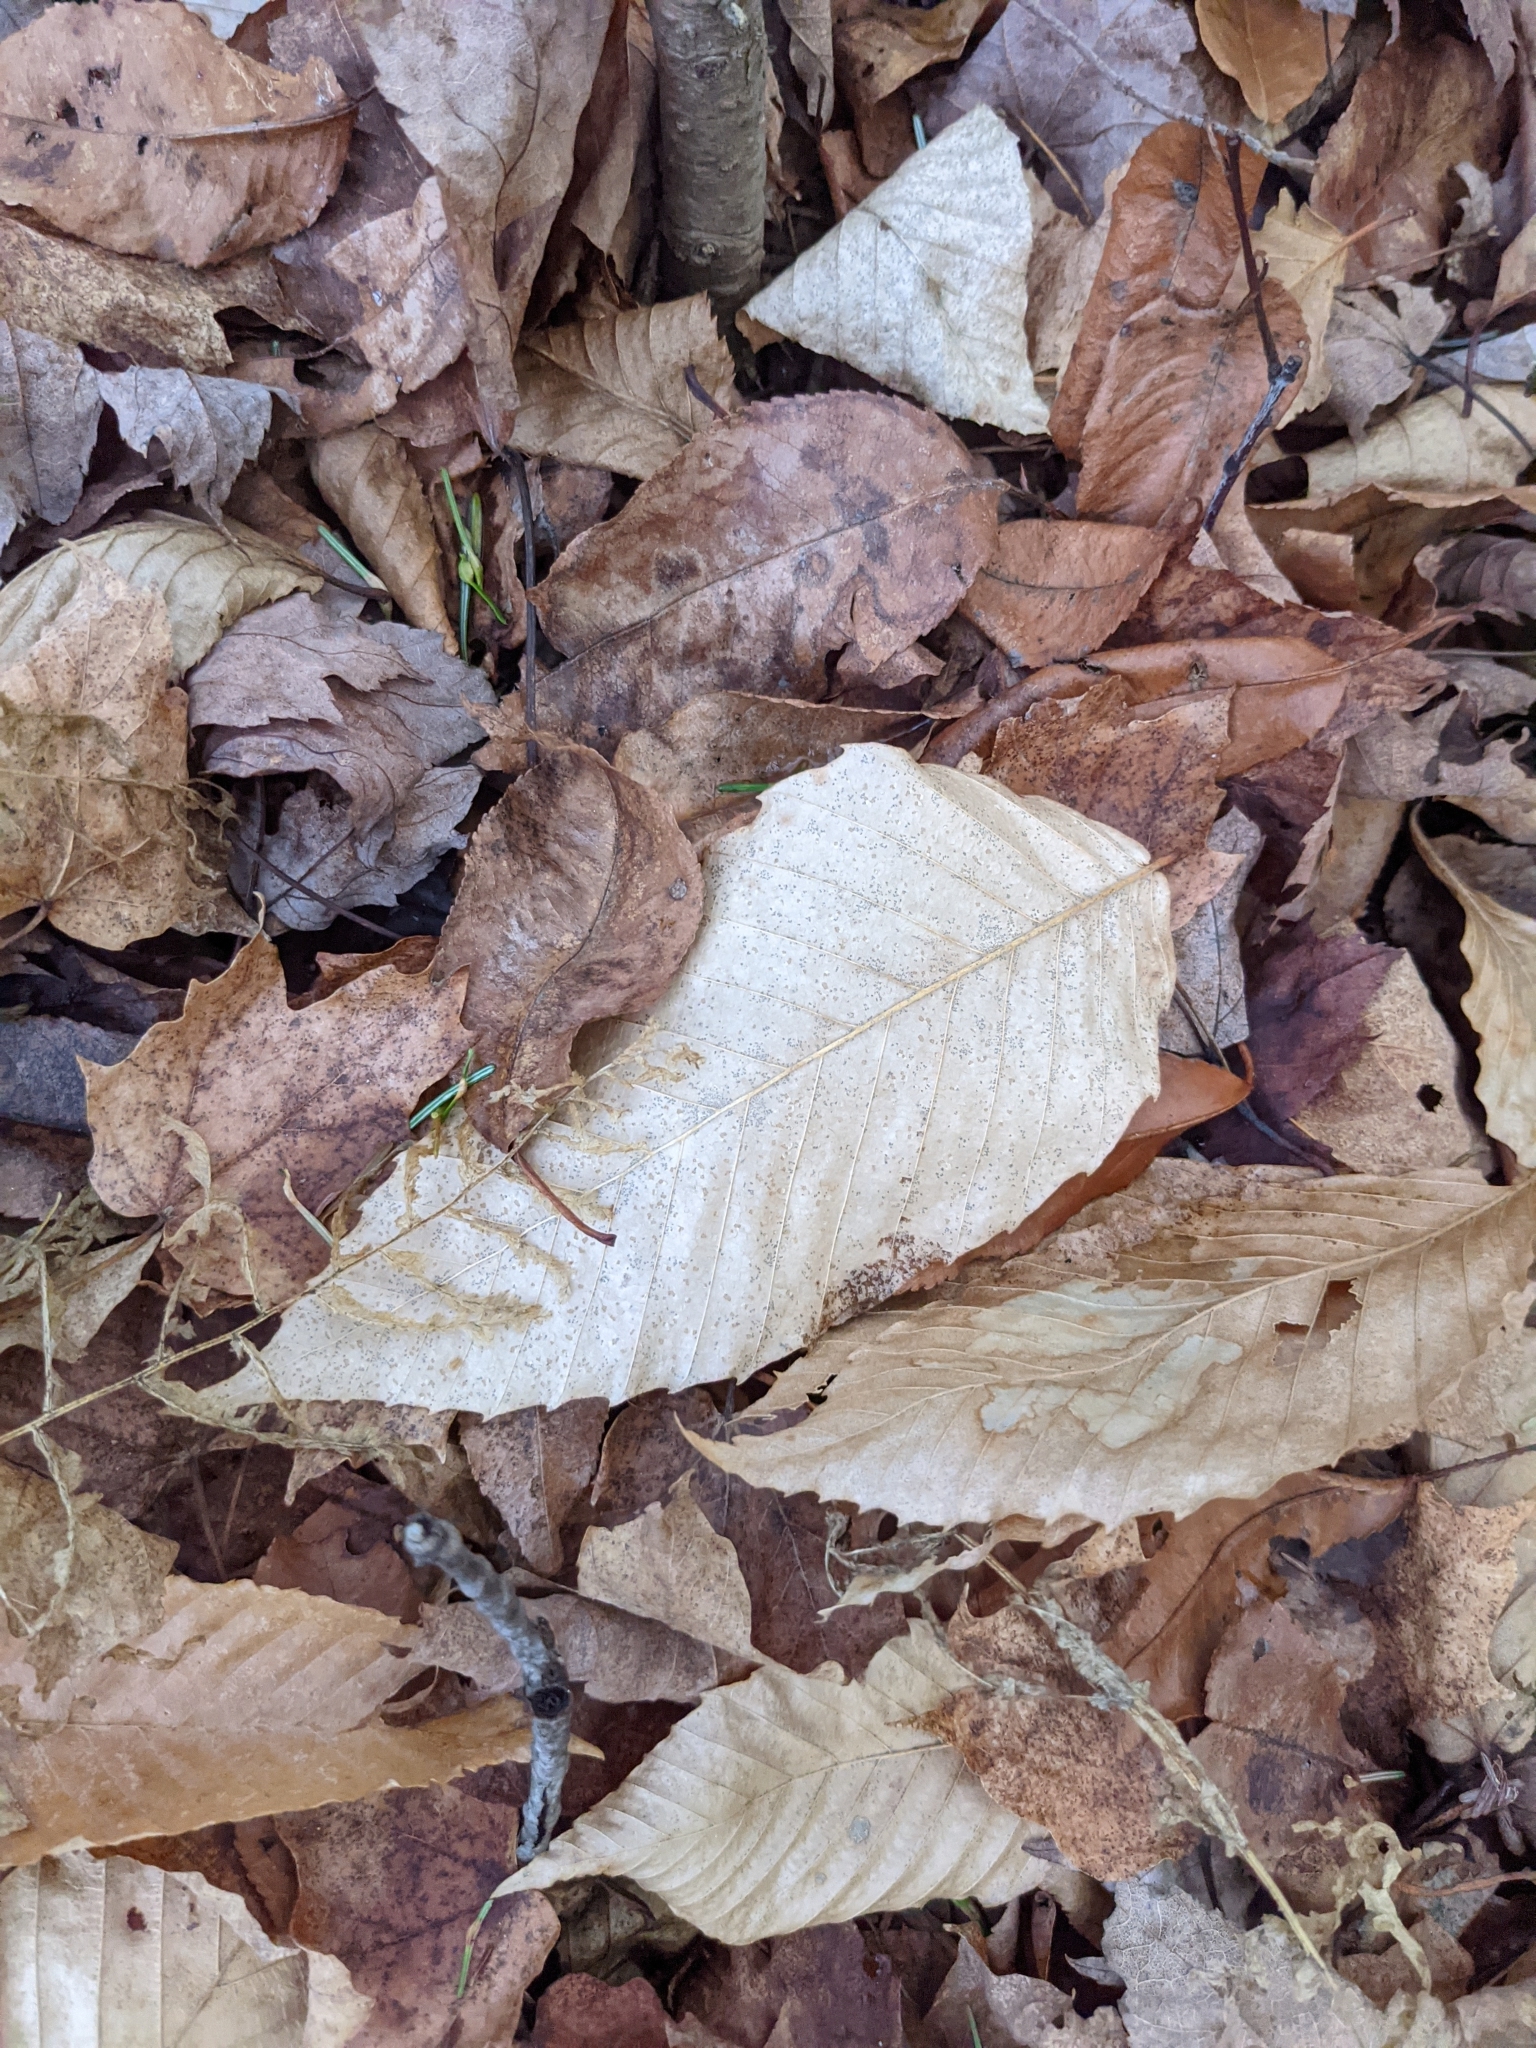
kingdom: Plantae
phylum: Tracheophyta
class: Magnoliopsida
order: Fagales
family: Fagaceae
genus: Fagus
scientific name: Fagus grandifolia
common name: American beech
